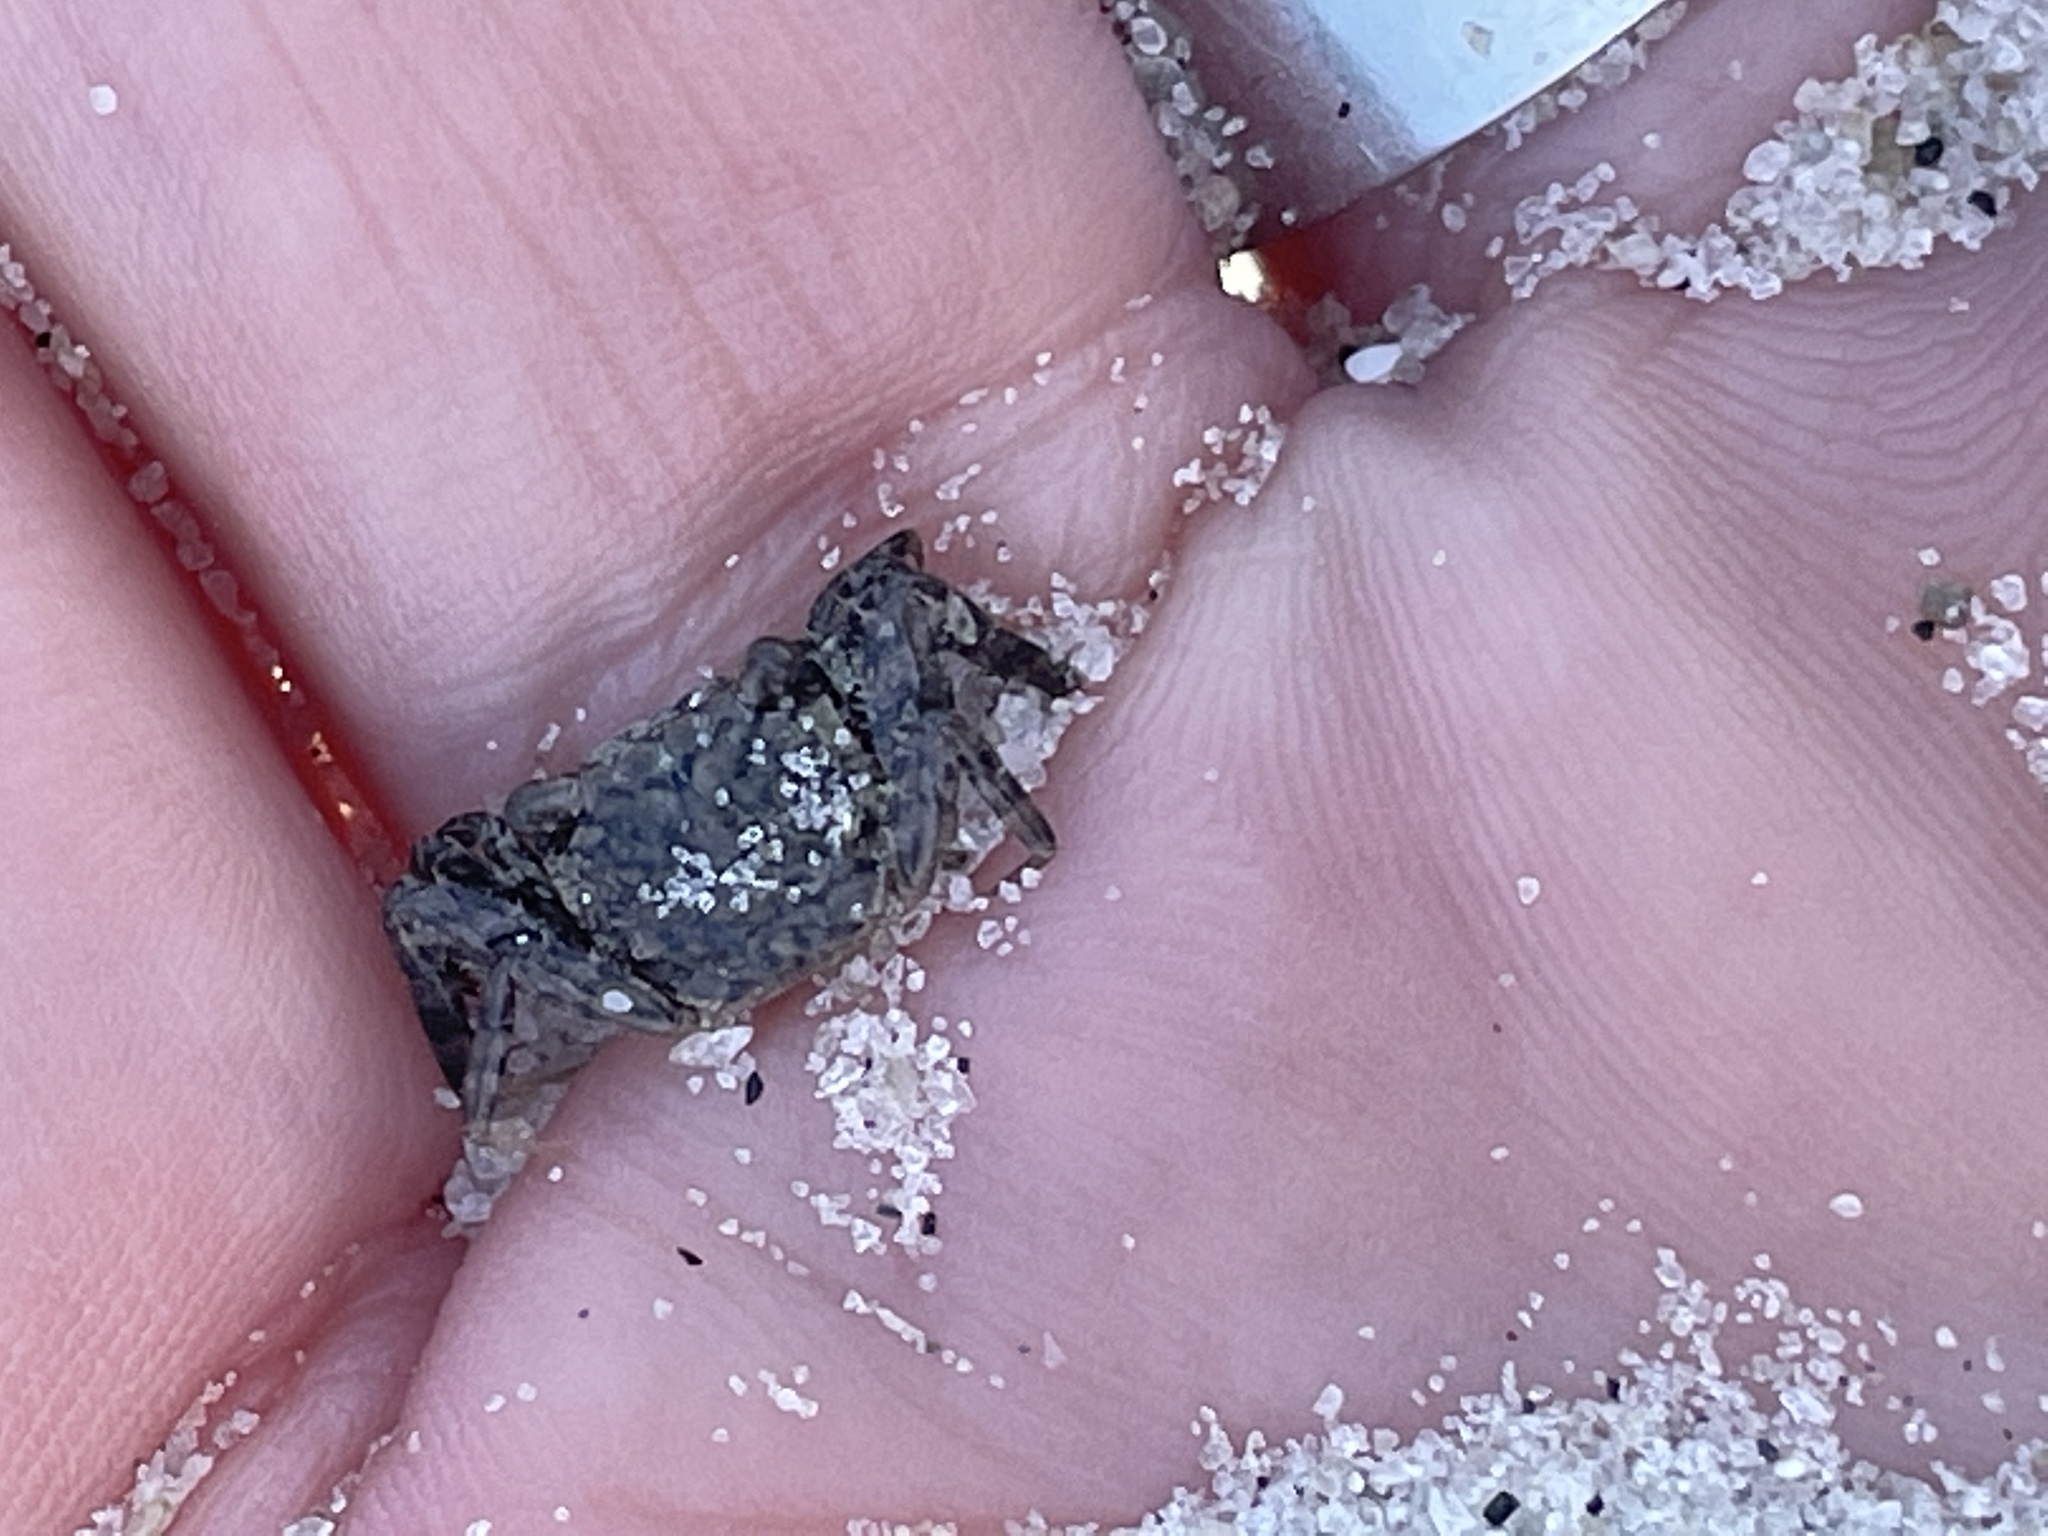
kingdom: Animalia
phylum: Arthropoda
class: Malacostraca
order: Decapoda
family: Sesarmidae
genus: Armases
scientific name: Armases cinereum
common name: Squareback marsh crab
